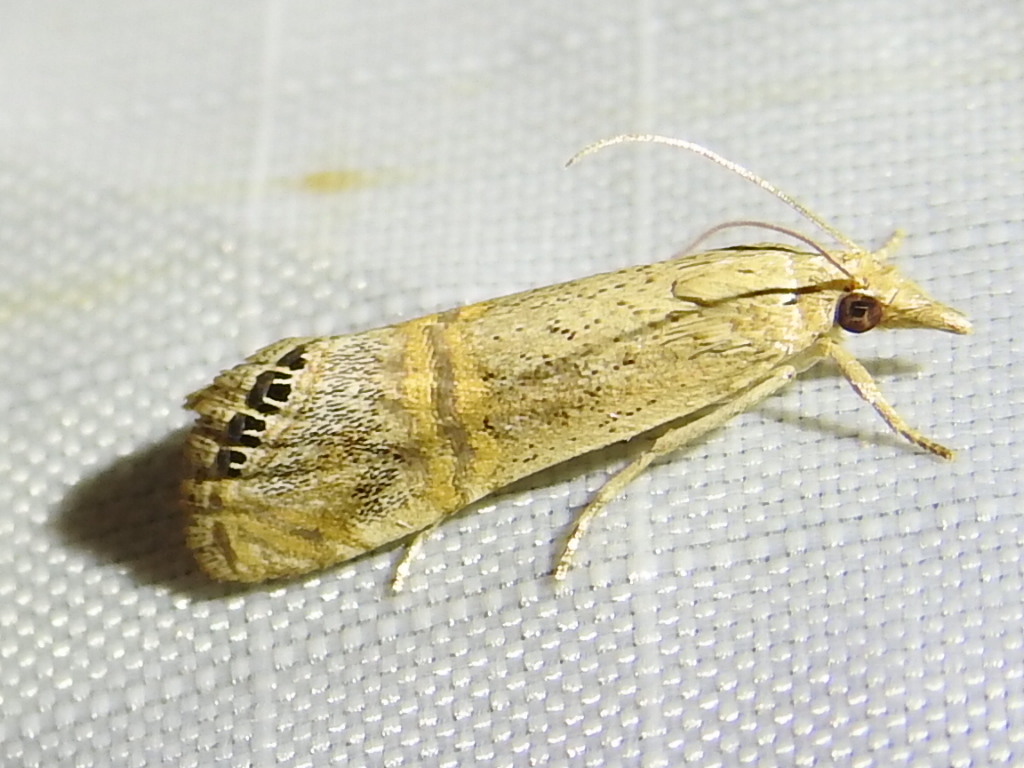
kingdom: Animalia
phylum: Arthropoda
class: Insecta
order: Lepidoptera
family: Crambidae
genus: Euchromius
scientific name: Euchromius ocellea
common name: Necklace veneer moth
